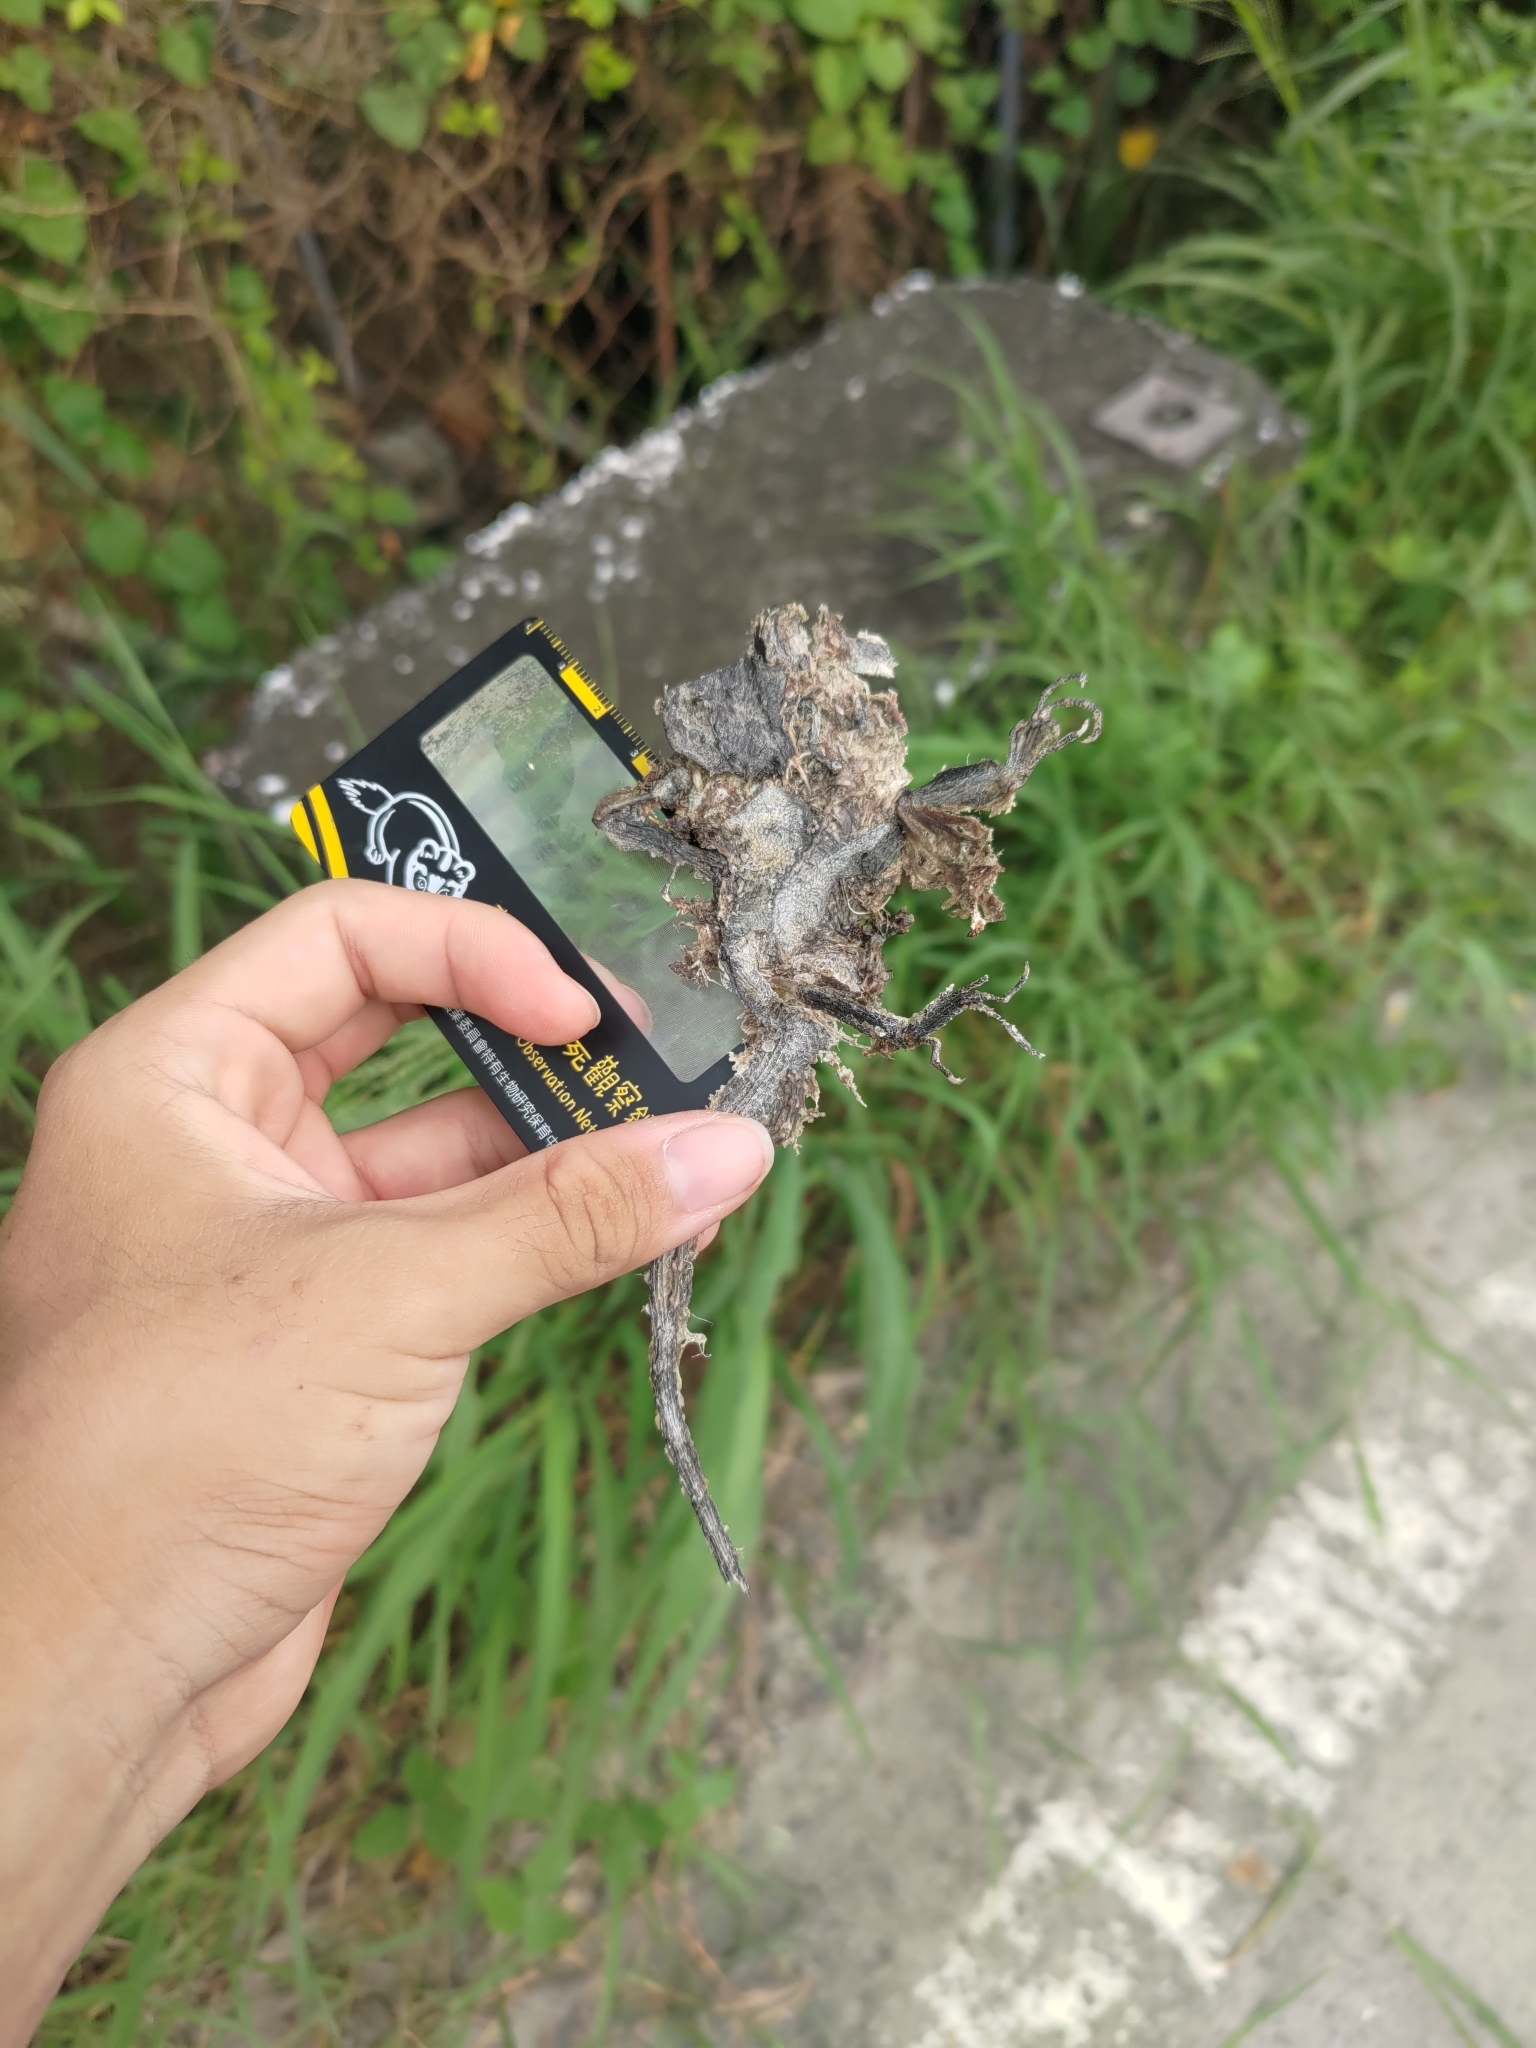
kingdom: Animalia
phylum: Chordata
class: Squamata
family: Agamidae
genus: Diploderma
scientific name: Diploderma swinhonis
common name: Taiwan japalure
